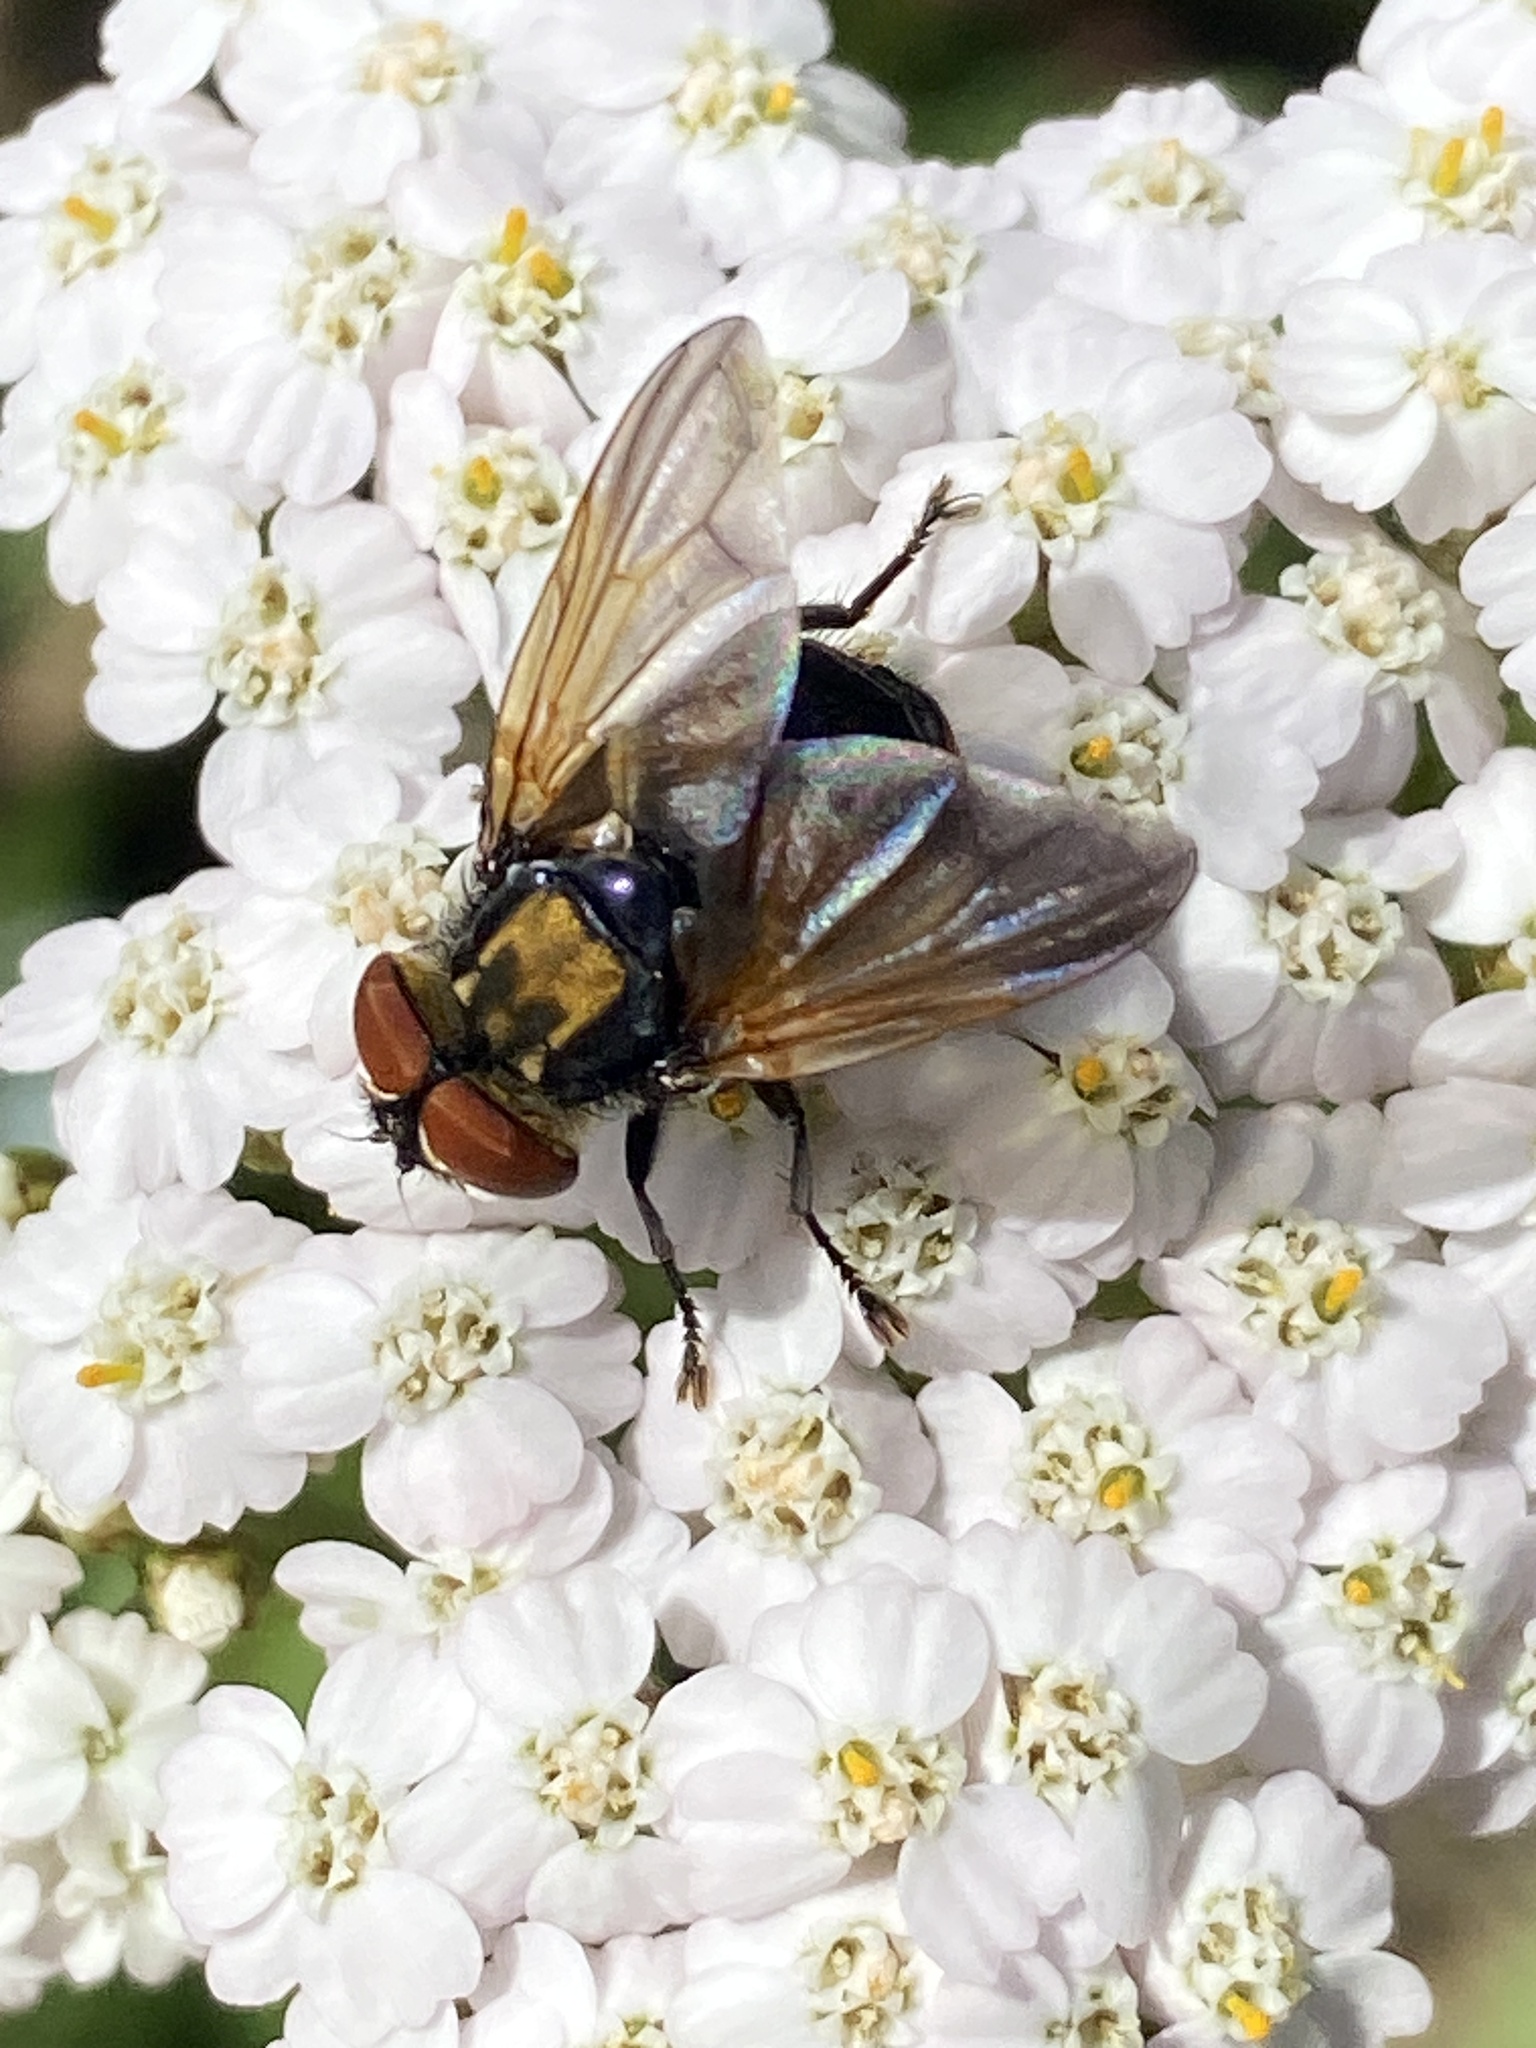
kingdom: Animalia
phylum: Arthropoda
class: Insecta
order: Diptera
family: Tachinidae
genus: Phasia
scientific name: Phasia aurigera
